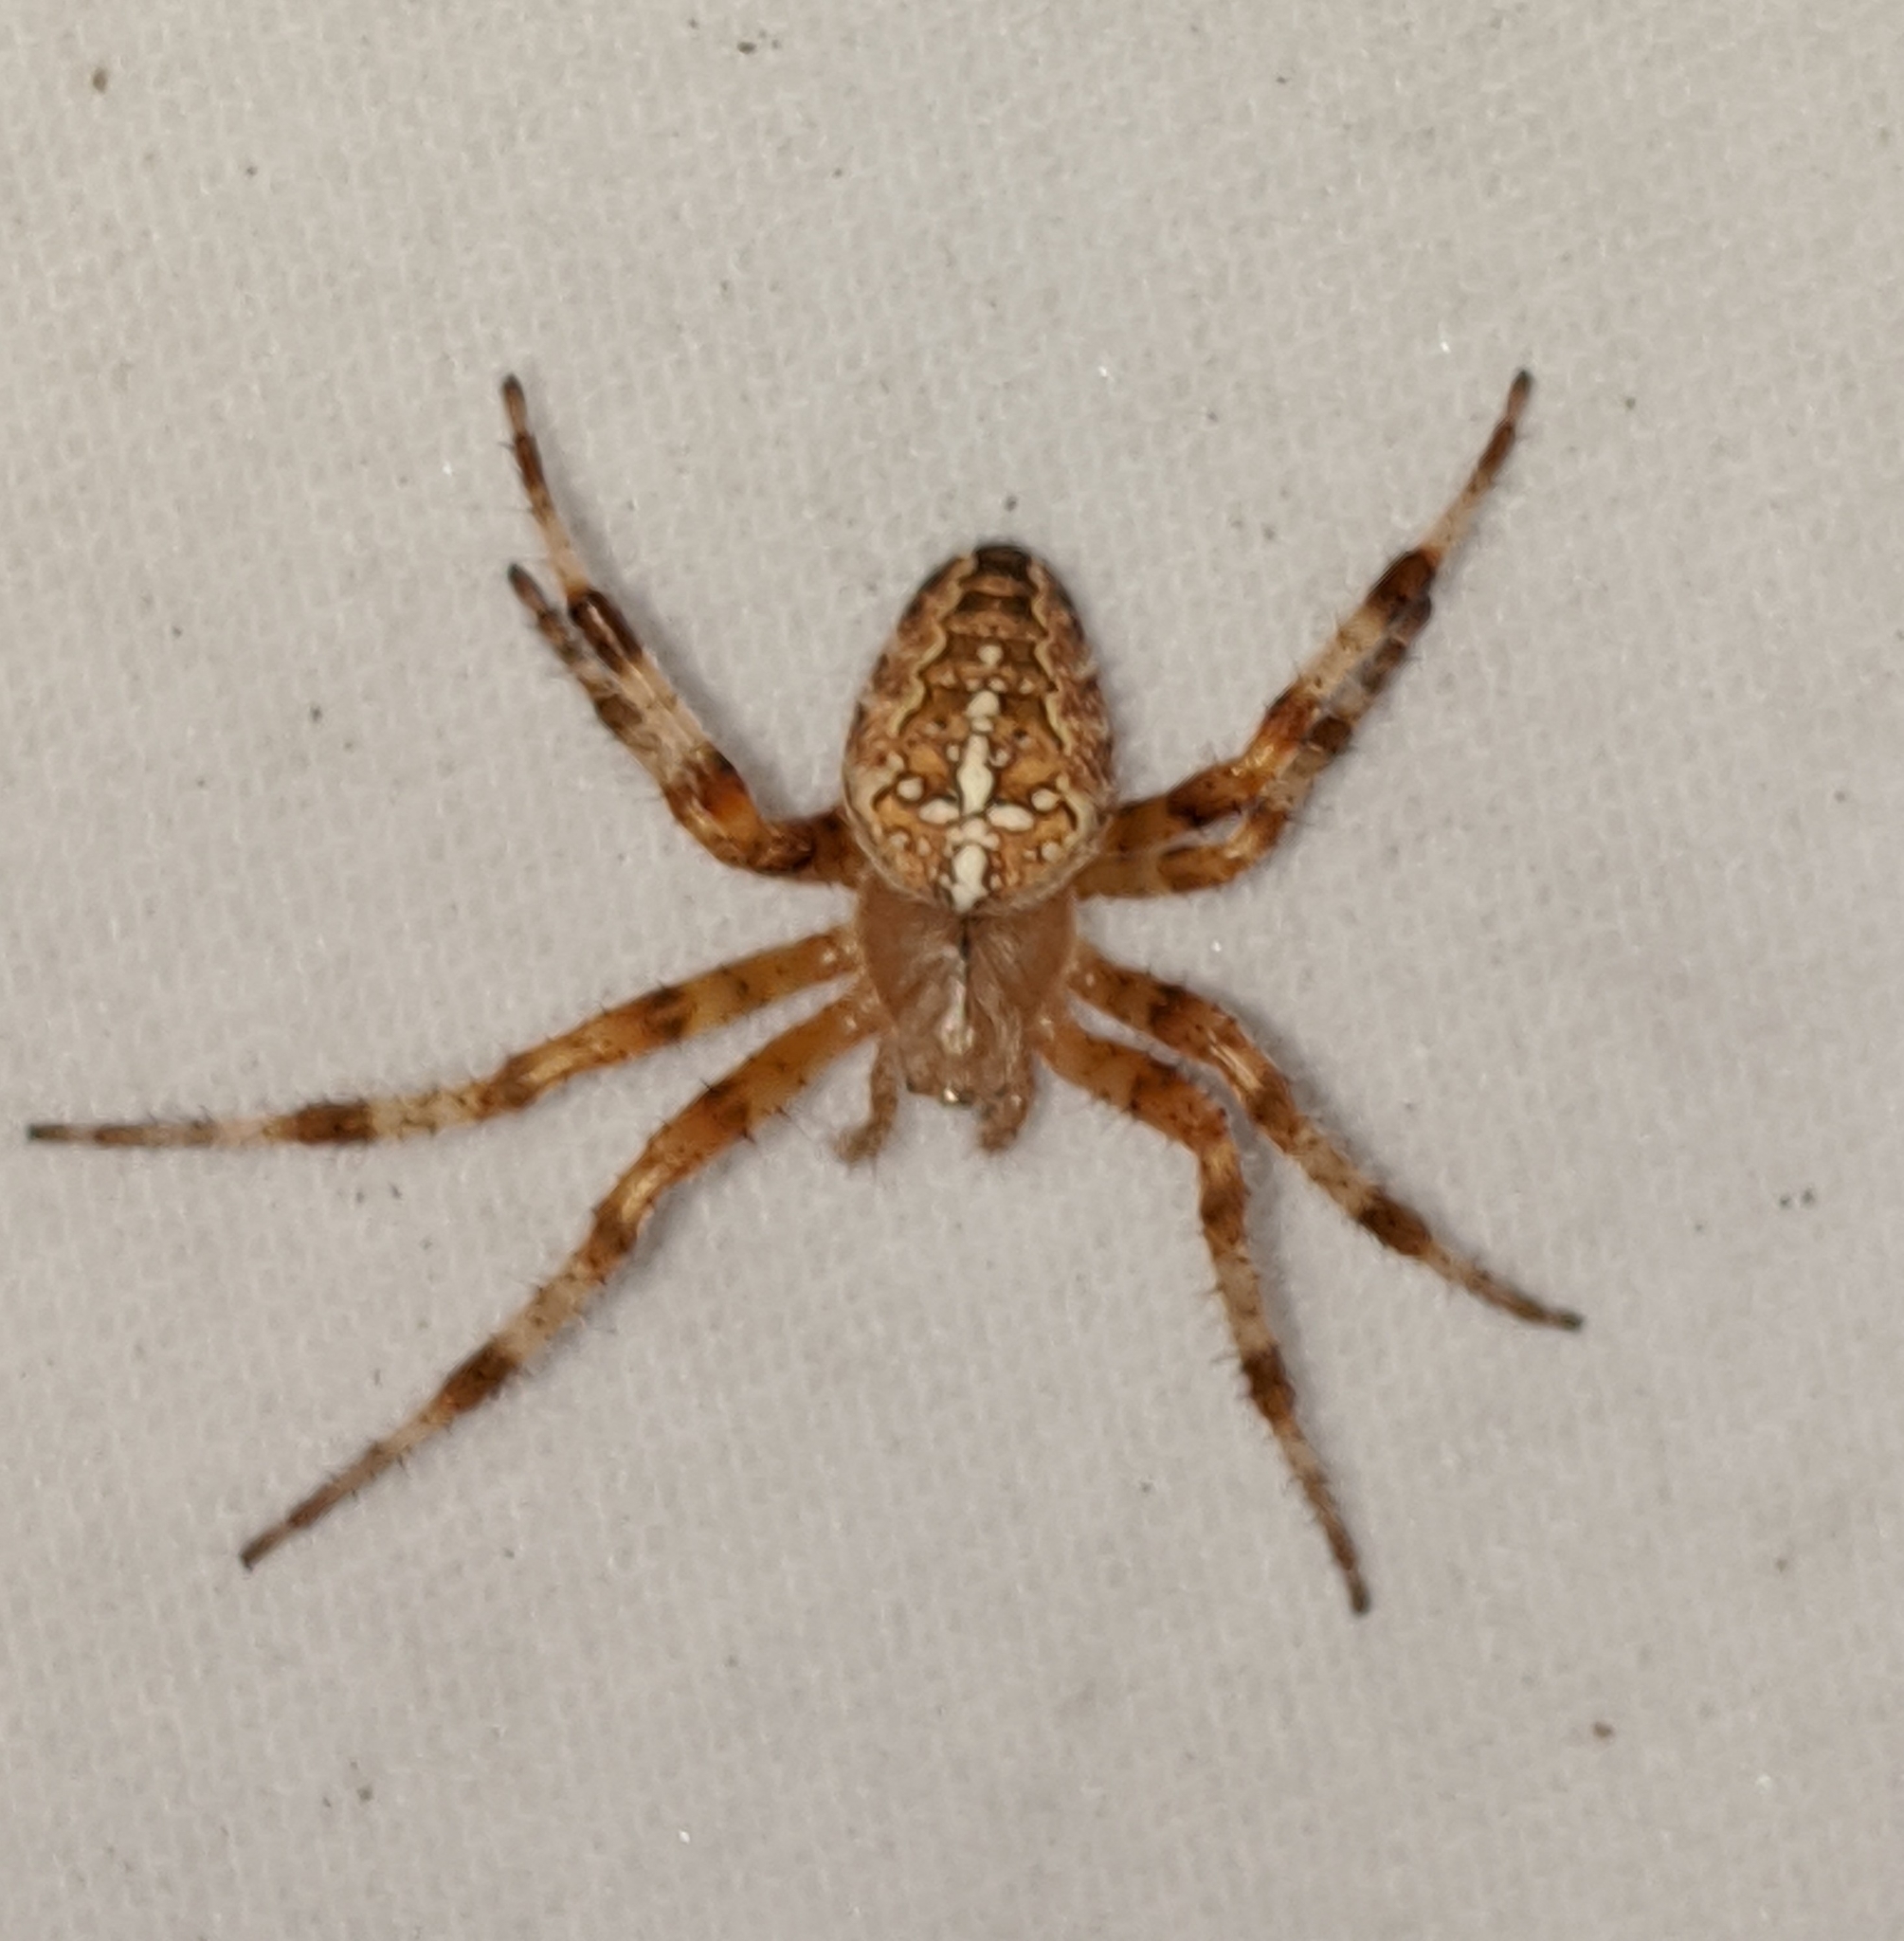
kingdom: Animalia
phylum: Arthropoda
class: Arachnida
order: Araneae
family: Araneidae
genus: Araneus
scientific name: Araneus diadematus
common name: Cross orbweaver
